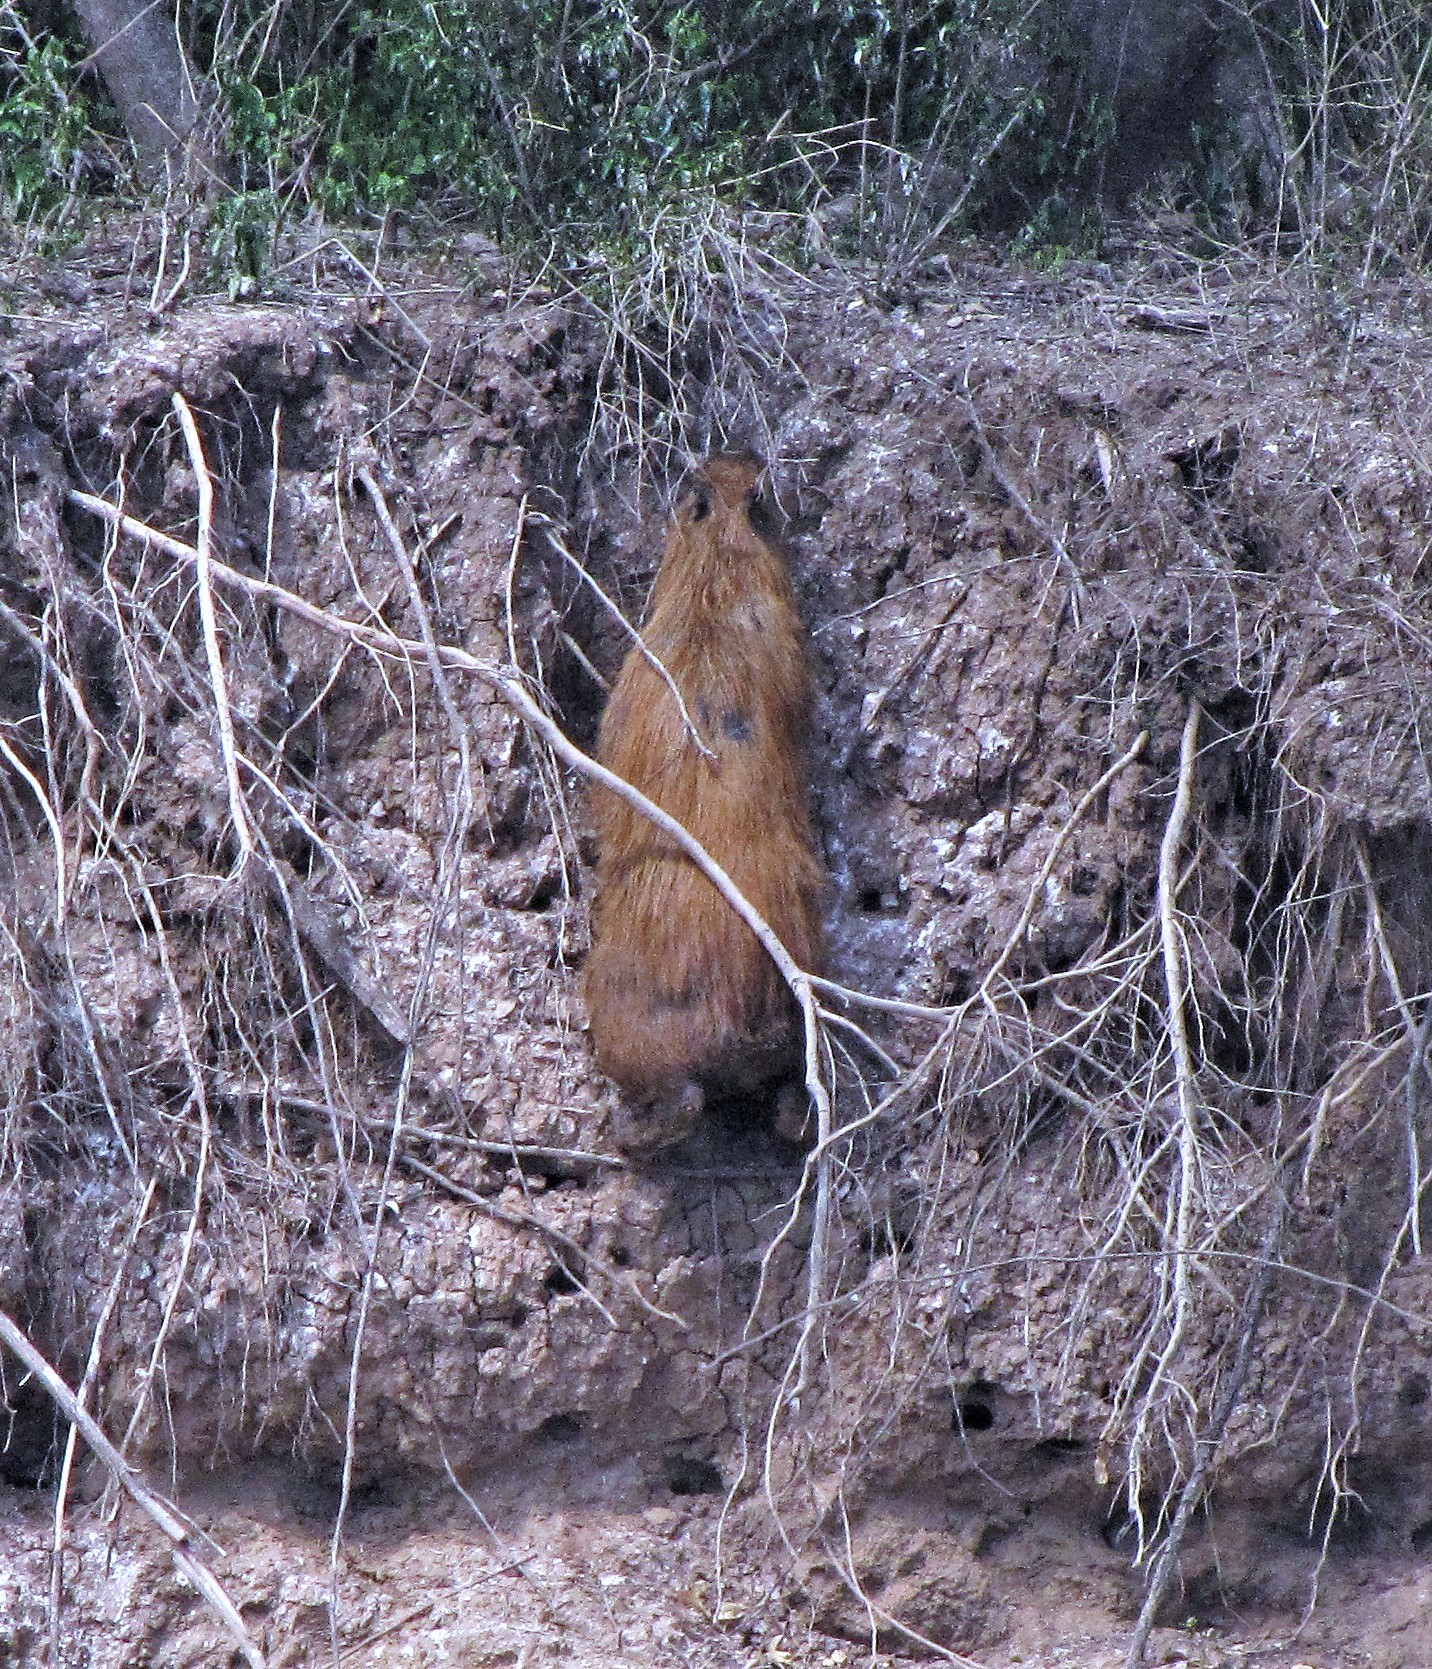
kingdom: Animalia
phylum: Chordata
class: Mammalia
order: Rodentia
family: Caviidae
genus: Hydrochoerus
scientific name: Hydrochoerus hydrochaeris
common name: Capybara
